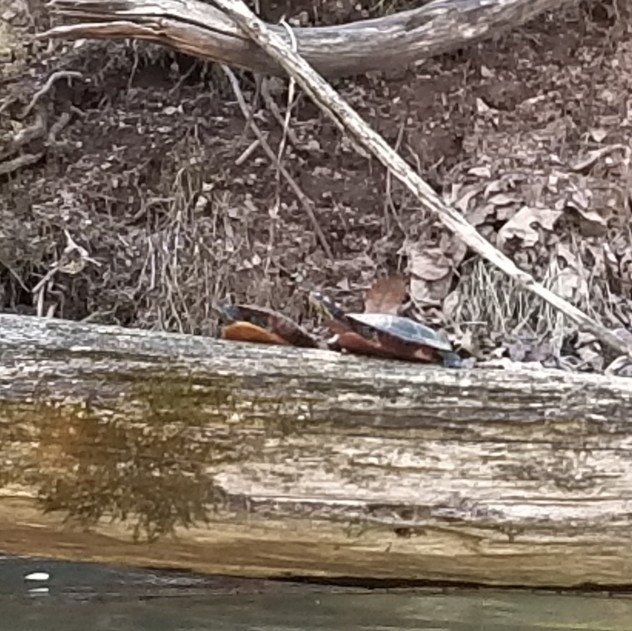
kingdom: Animalia
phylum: Chordata
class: Testudines
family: Emydidae
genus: Chrysemys
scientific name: Chrysemys picta
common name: Painted turtle
